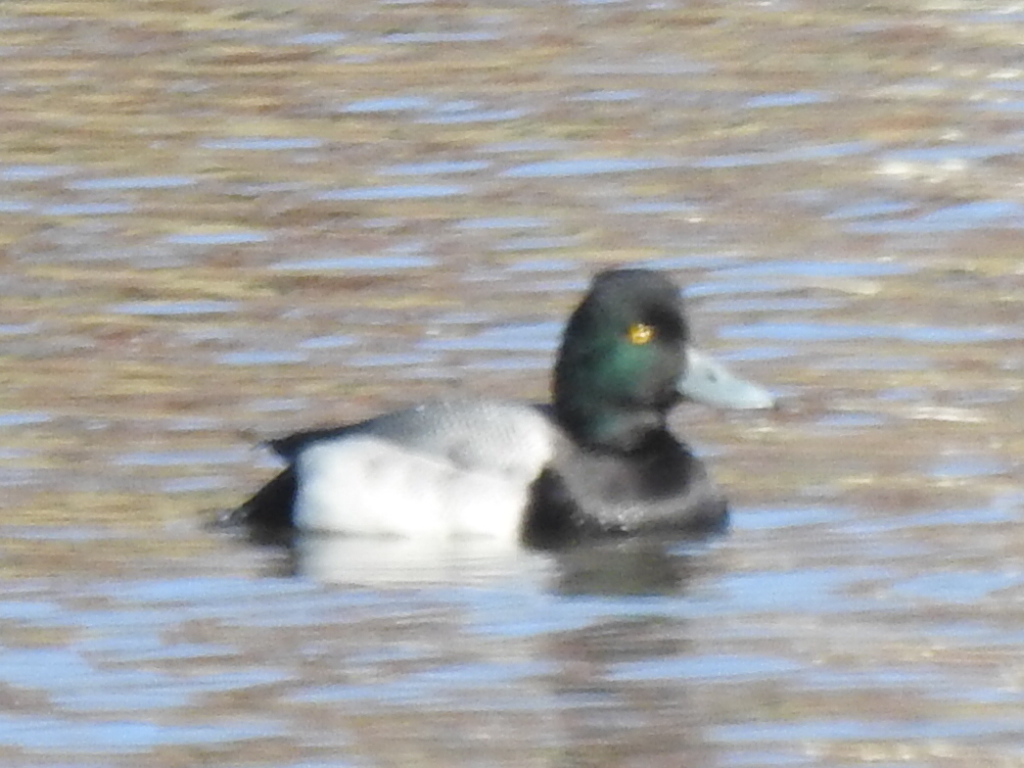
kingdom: Animalia
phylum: Chordata
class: Aves
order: Anseriformes
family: Anatidae
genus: Aythya
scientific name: Aythya affinis
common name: Lesser scaup
